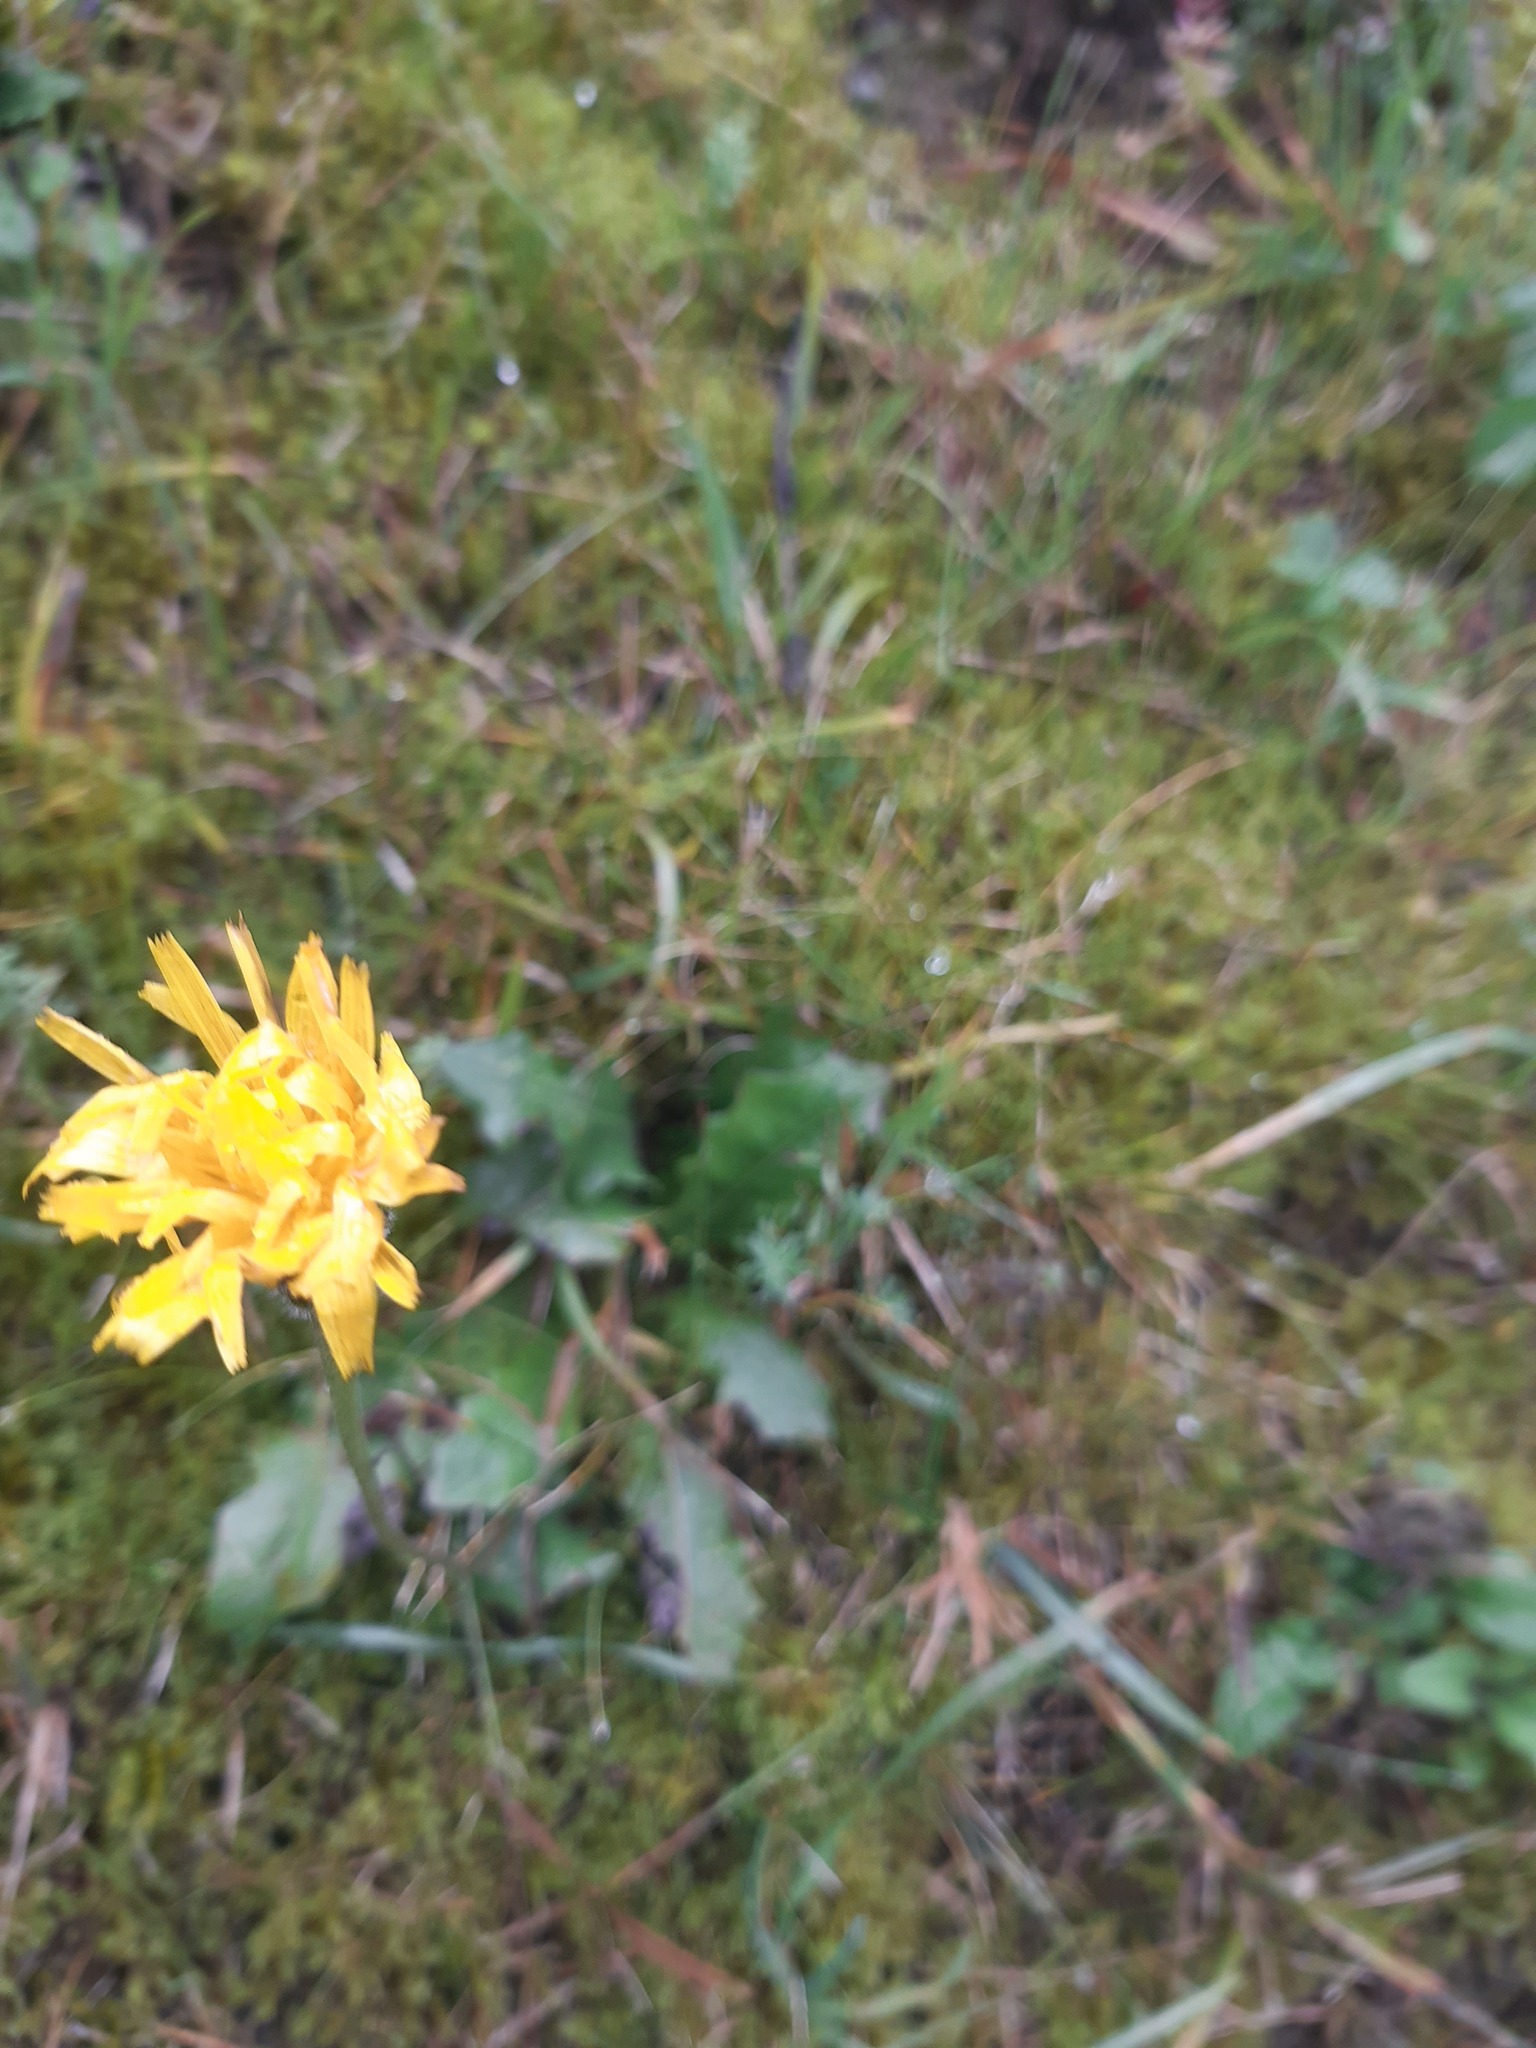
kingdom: Plantae
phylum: Tracheophyta
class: Magnoliopsida
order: Asterales
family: Asteraceae
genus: Leontodon
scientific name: Leontodon hispidus
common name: Rough hawkbit
